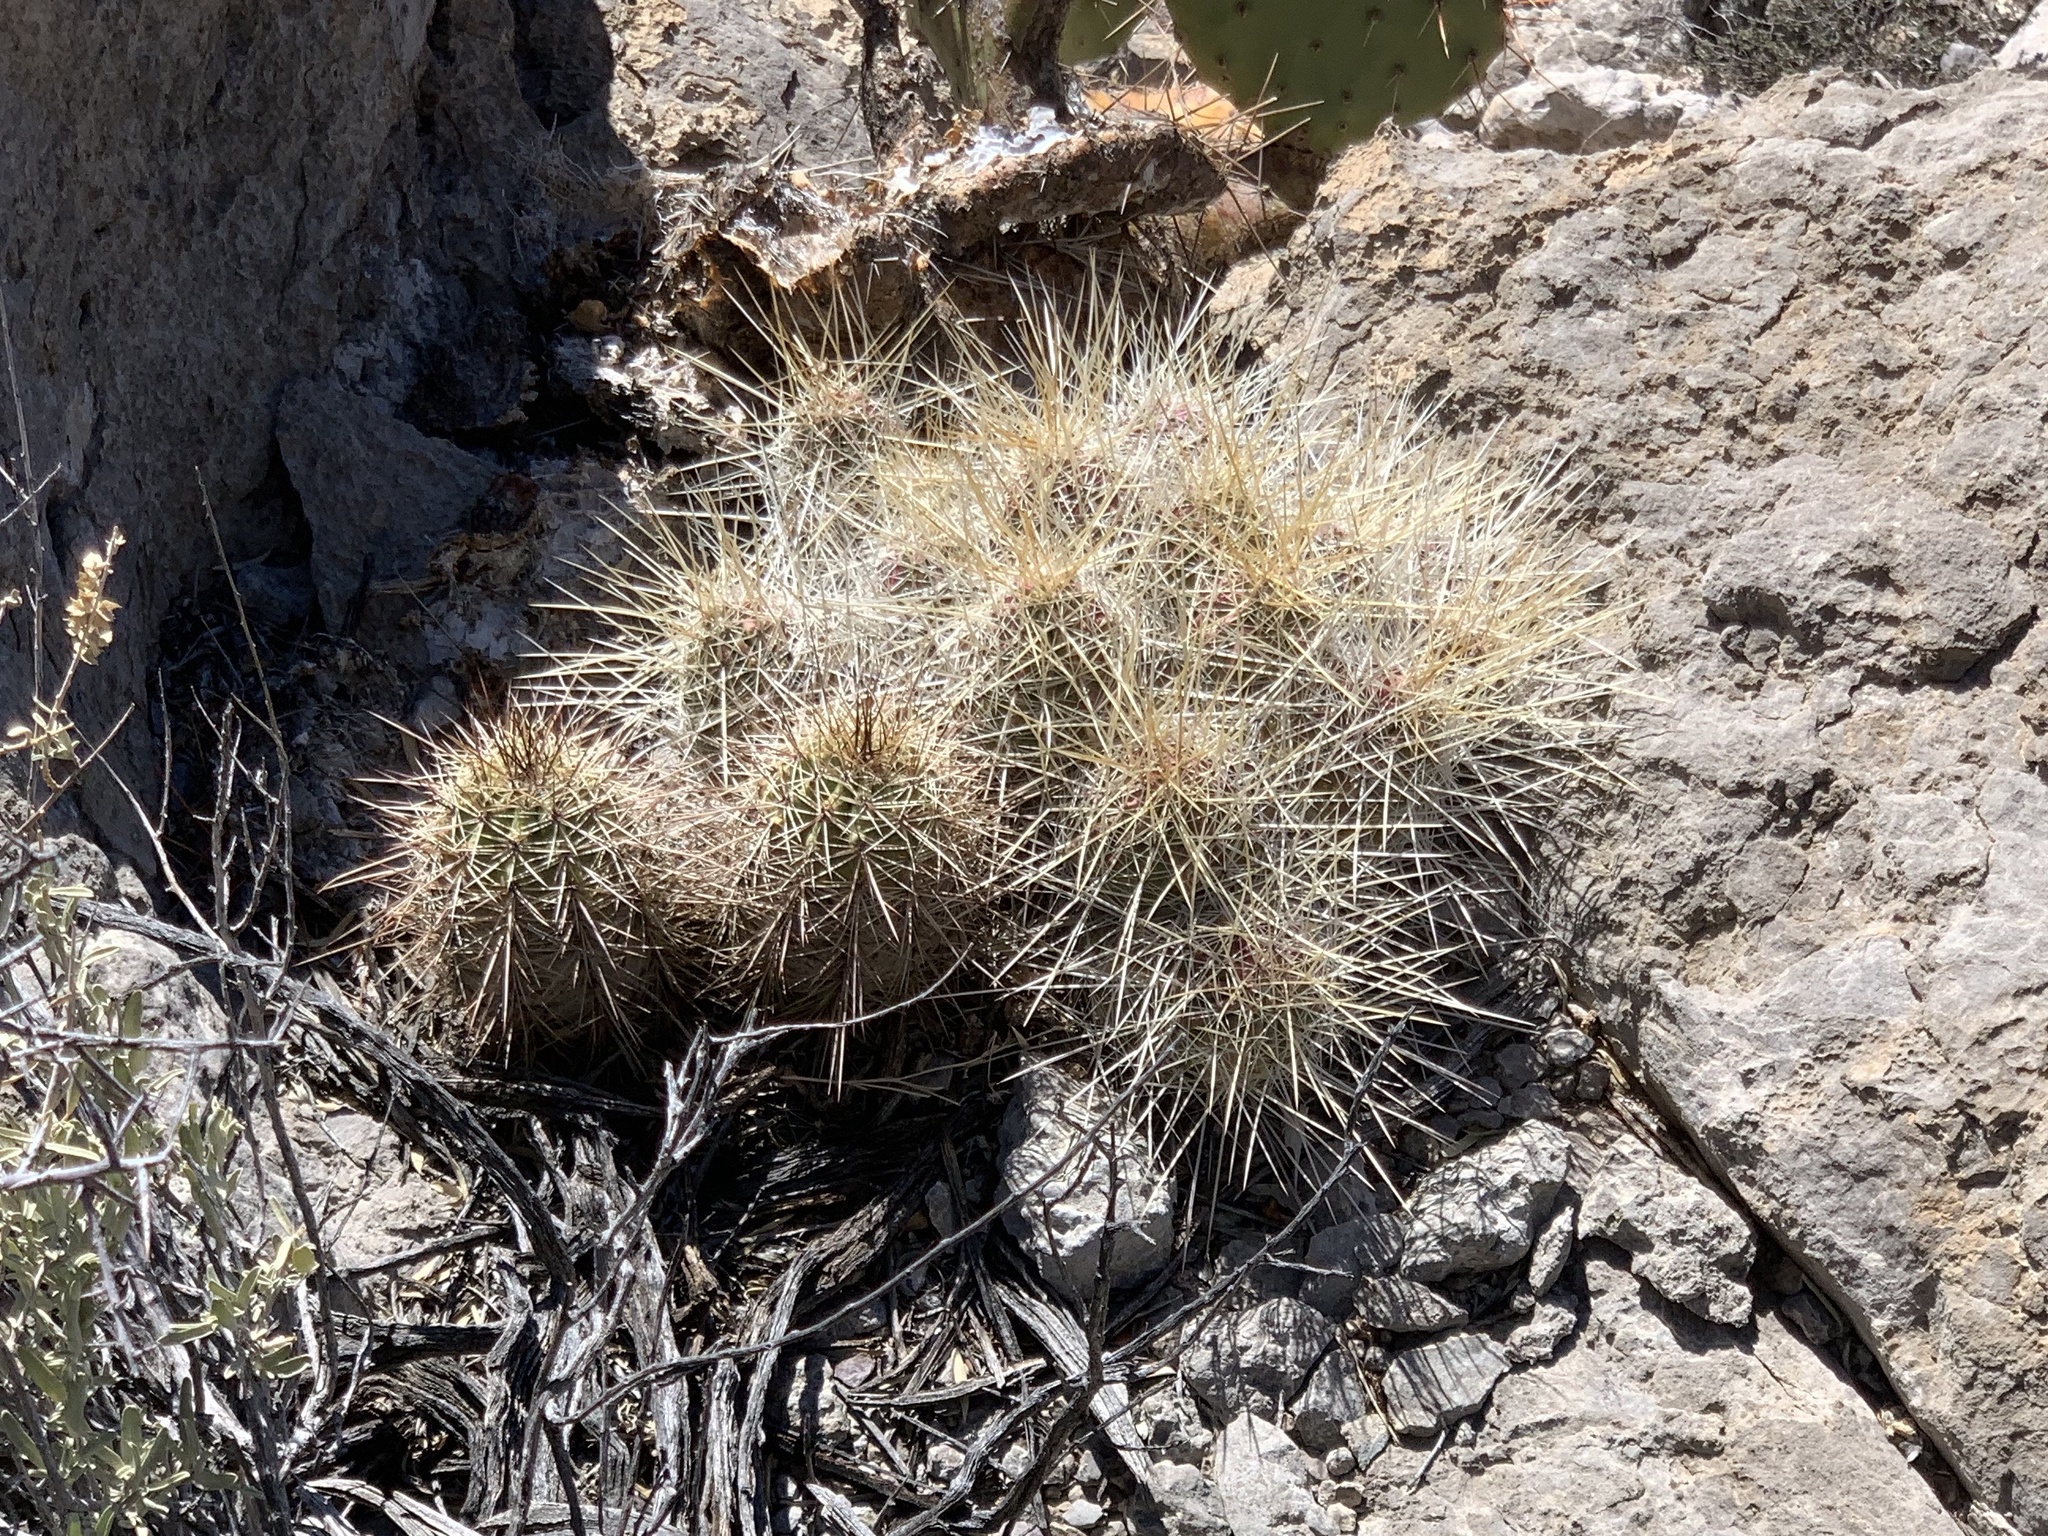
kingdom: Plantae
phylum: Tracheophyta
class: Magnoliopsida
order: Caryophyllales
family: Cactaceae
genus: Echinocereus
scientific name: Echinocereus stramineus
